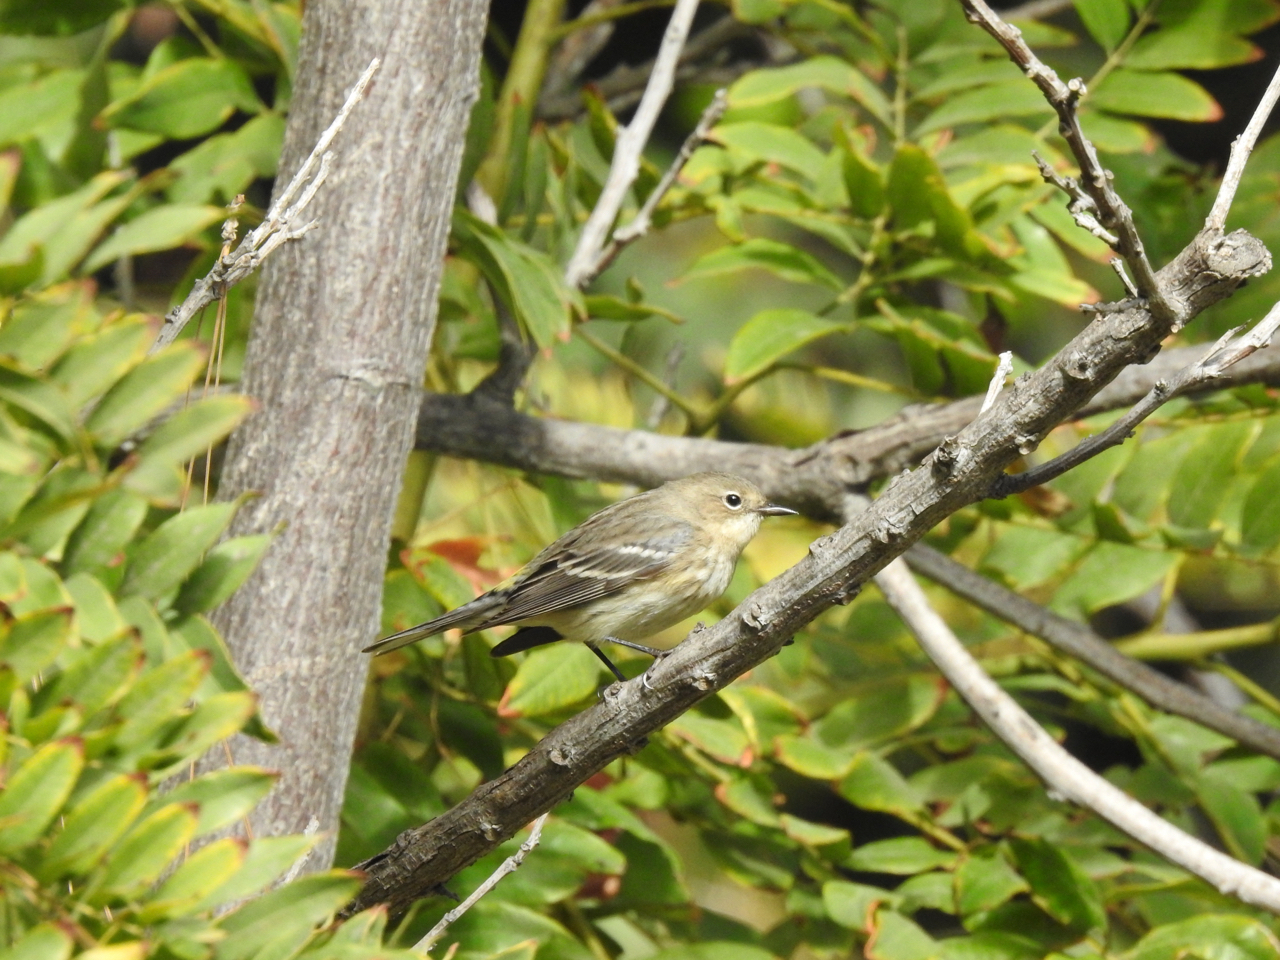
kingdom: Animalia
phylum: Chordata
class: Aves
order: Passeriformes
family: Parulidae
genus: Setophaga
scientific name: Setophaga coronata
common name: Myrtle warbler
